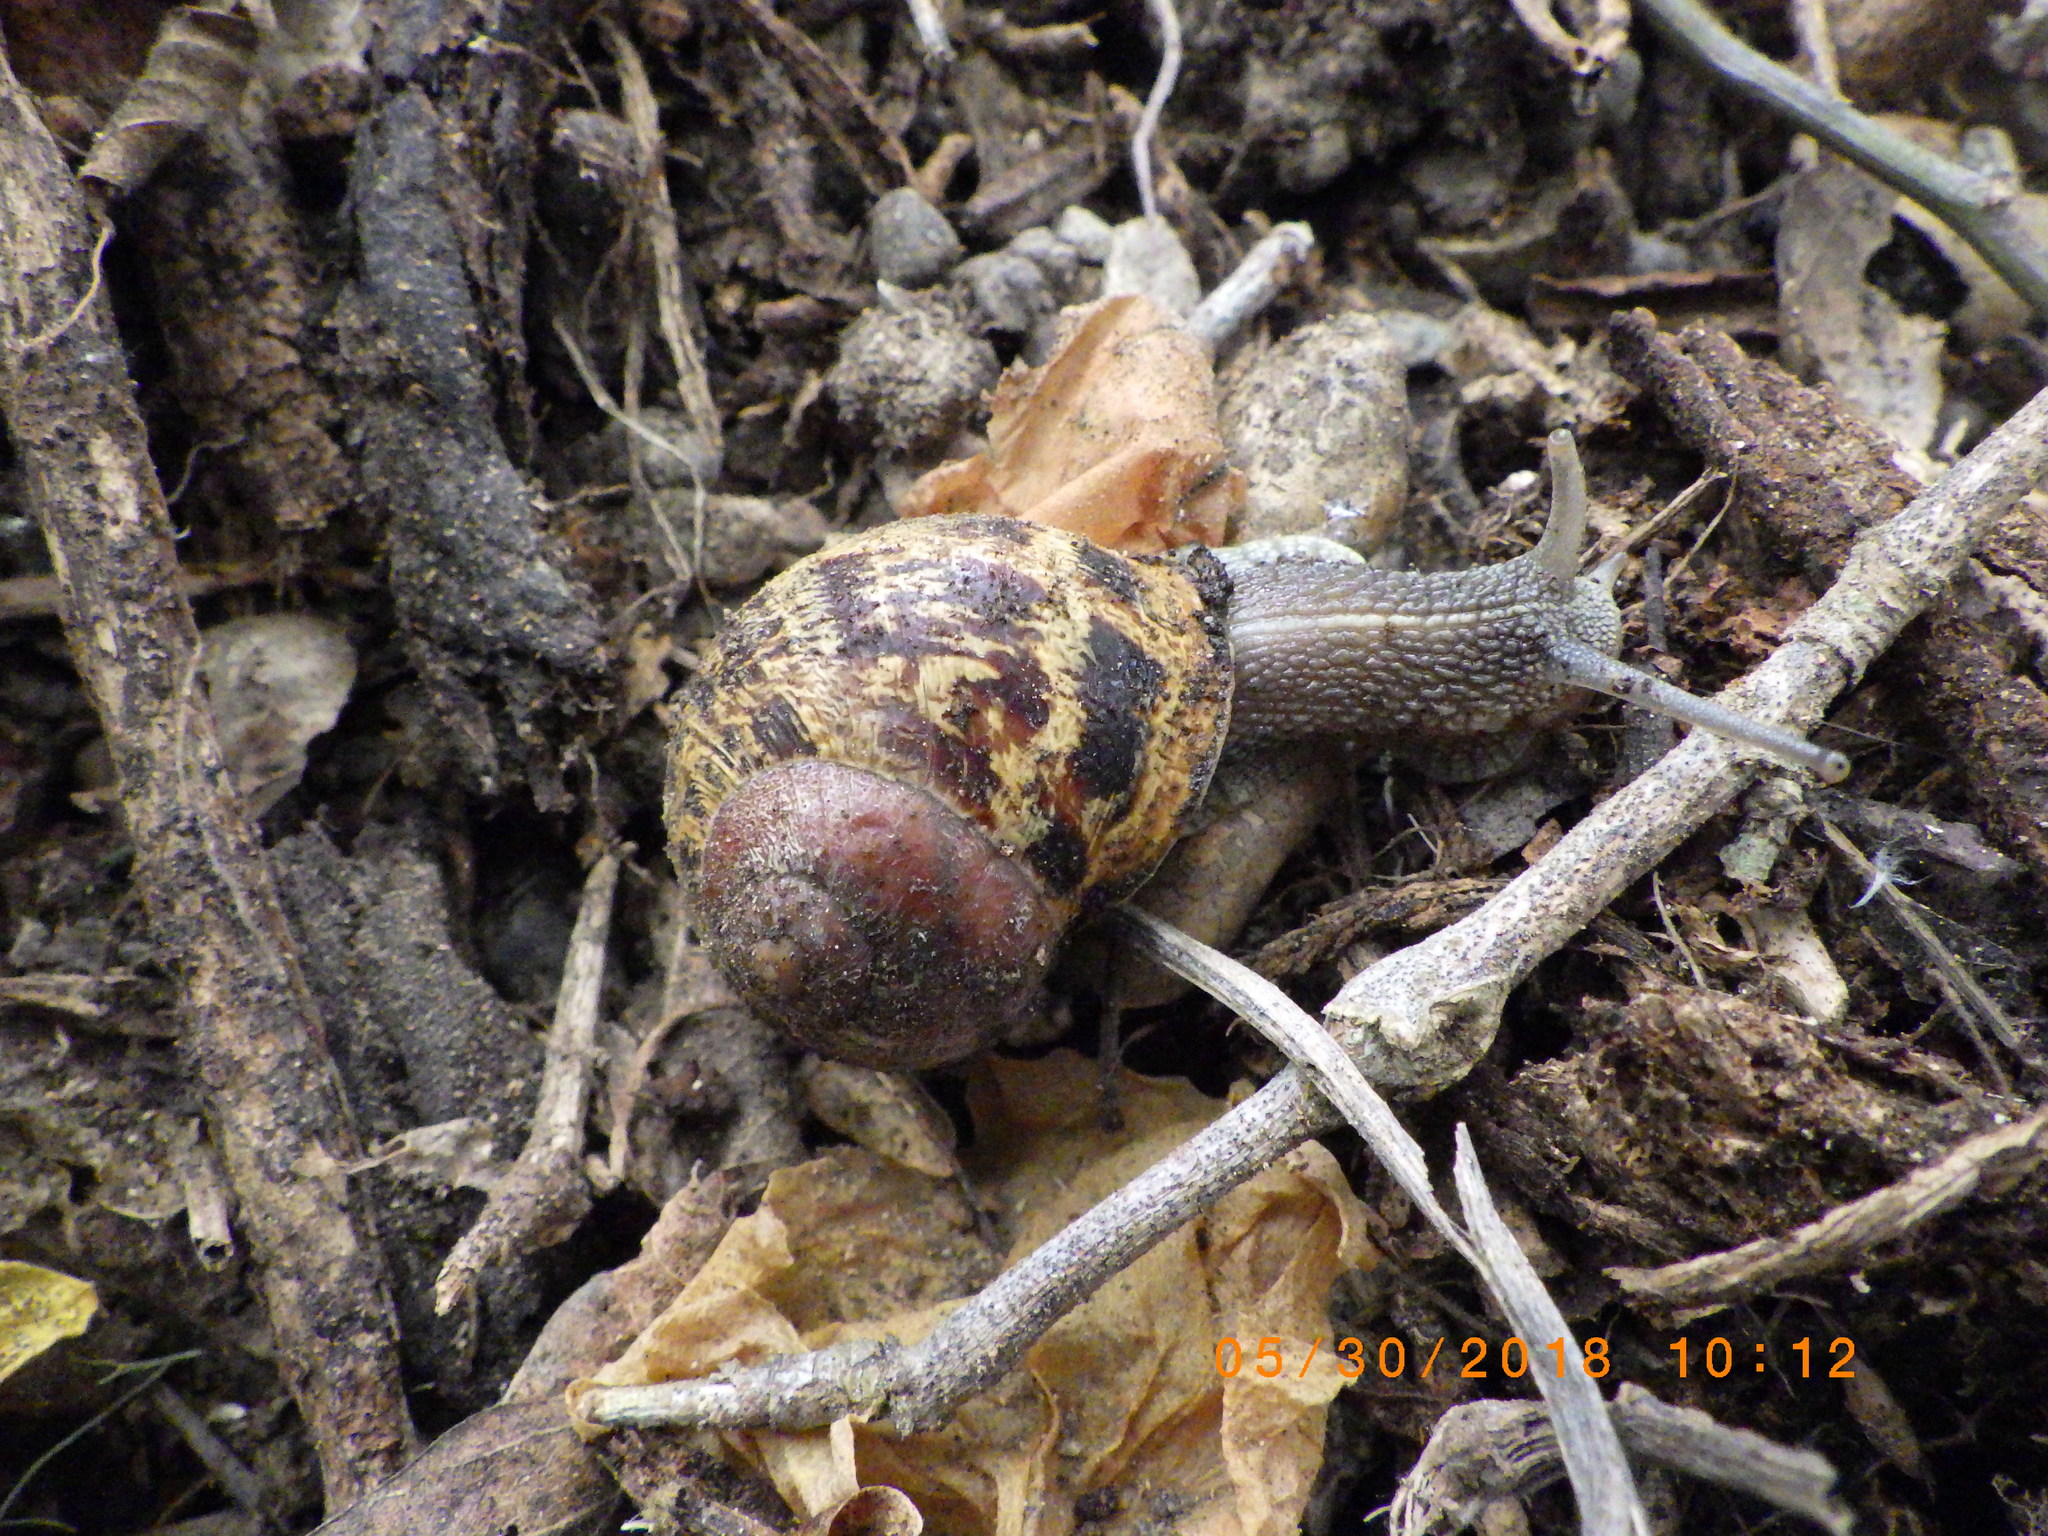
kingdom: Animalia
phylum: Mollusca
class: Gastropoda
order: Stylommatophora
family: Helicidae
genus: Cornu
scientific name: Cornu aspersum
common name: Brown garden snail
